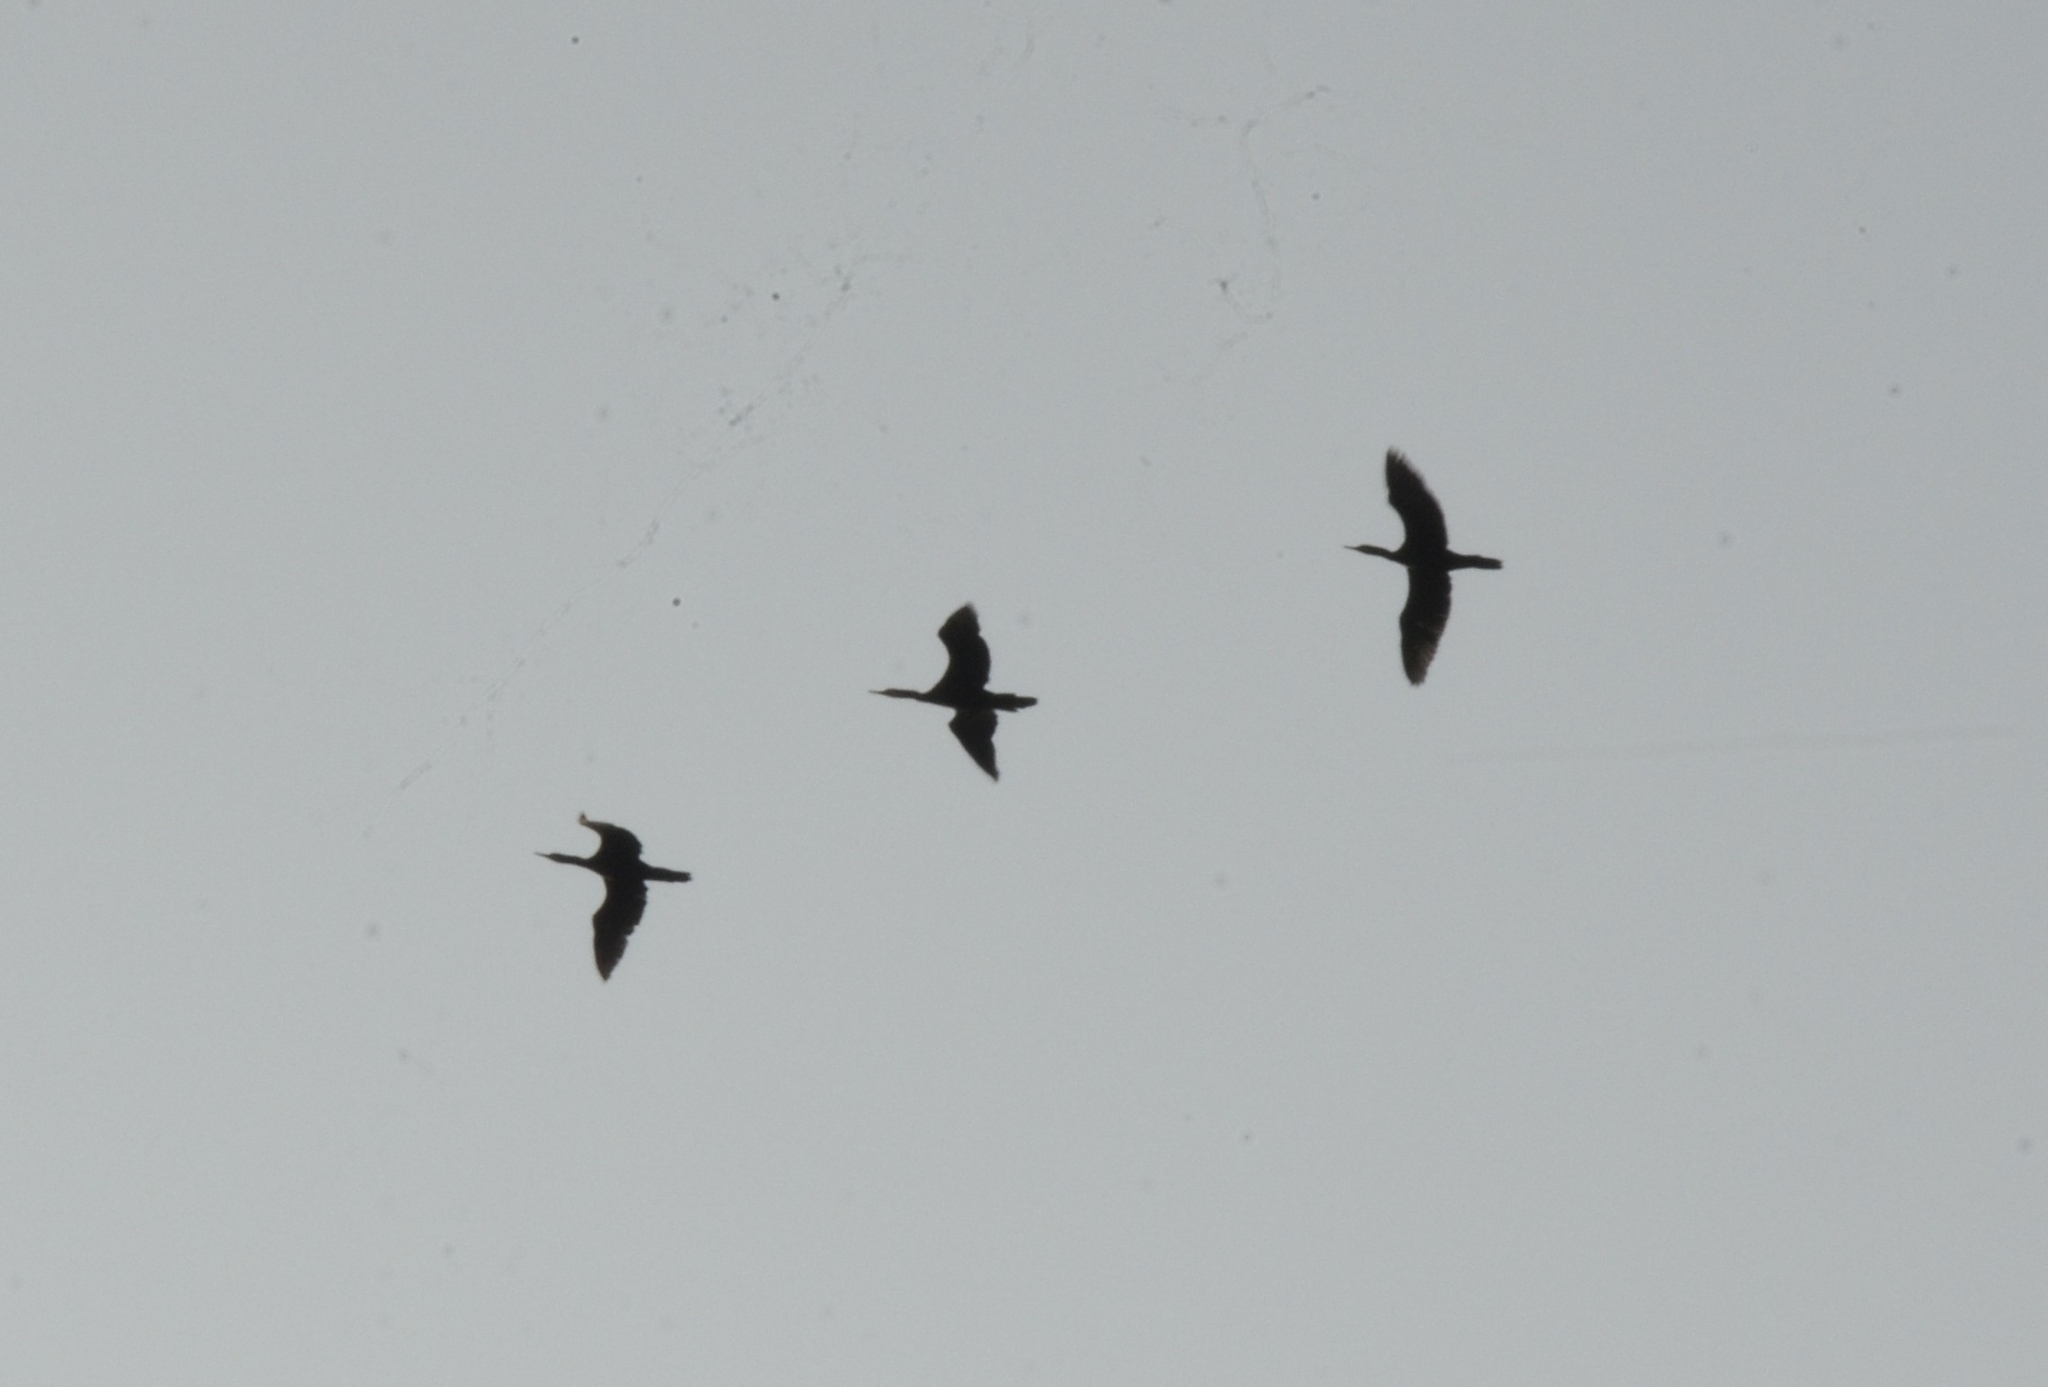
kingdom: Animalia
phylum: Chordata
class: Aves
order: Suliformes
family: Phalacrocoracidae
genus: Phalacrocorax
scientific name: Phalacrocorax fuscicollis
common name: Indian cormorant
